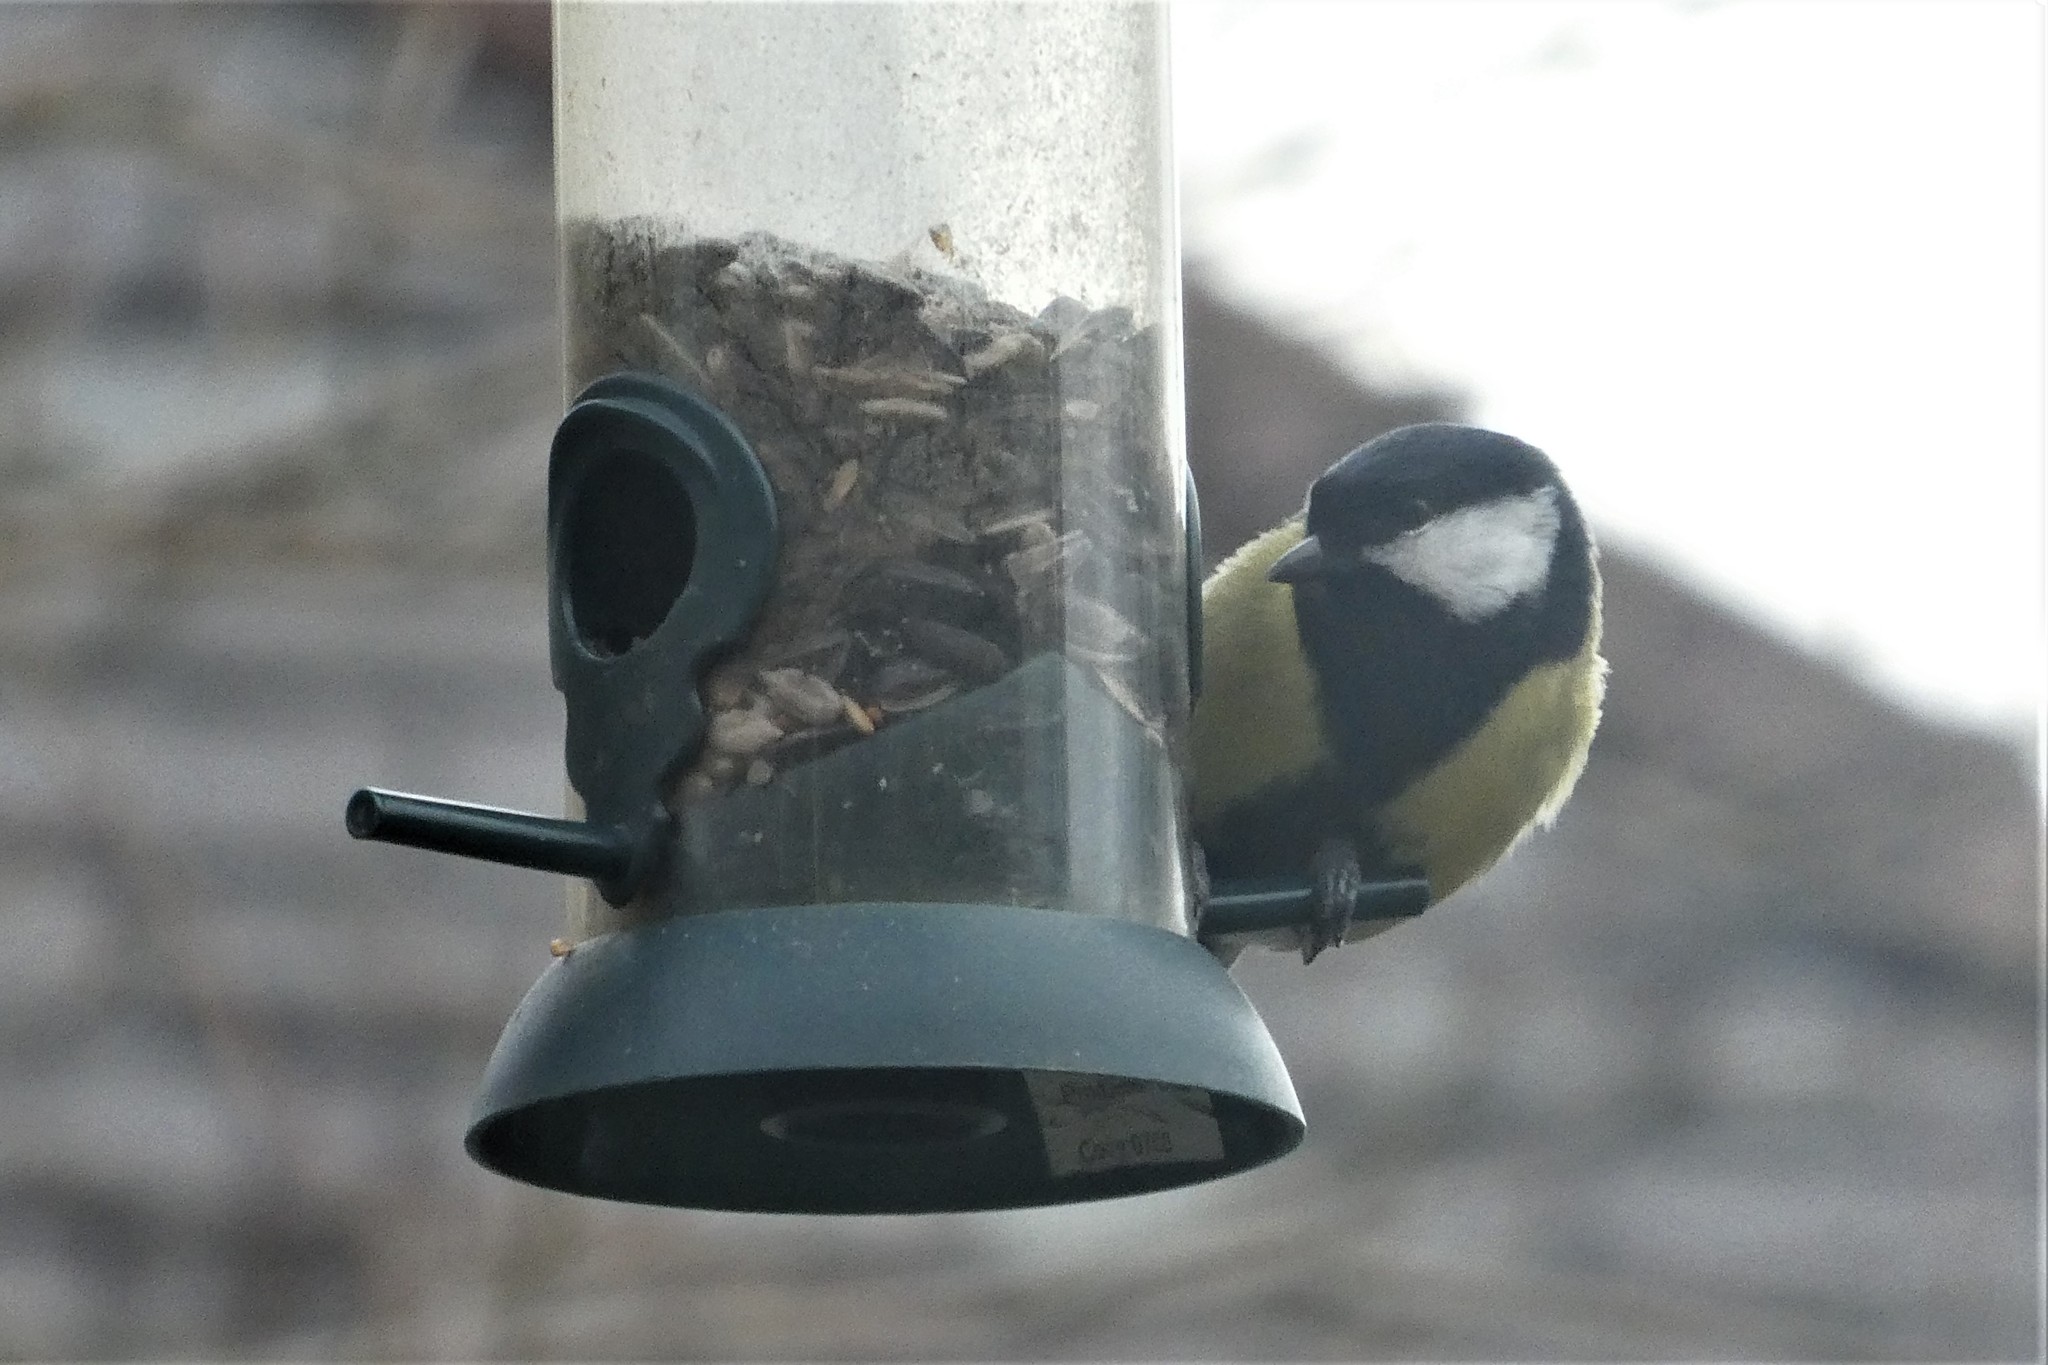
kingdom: Animalia
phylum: Chordata
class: Aves
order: Passeriformes
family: Paridae
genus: Parus
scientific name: Parus major
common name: Great tit
